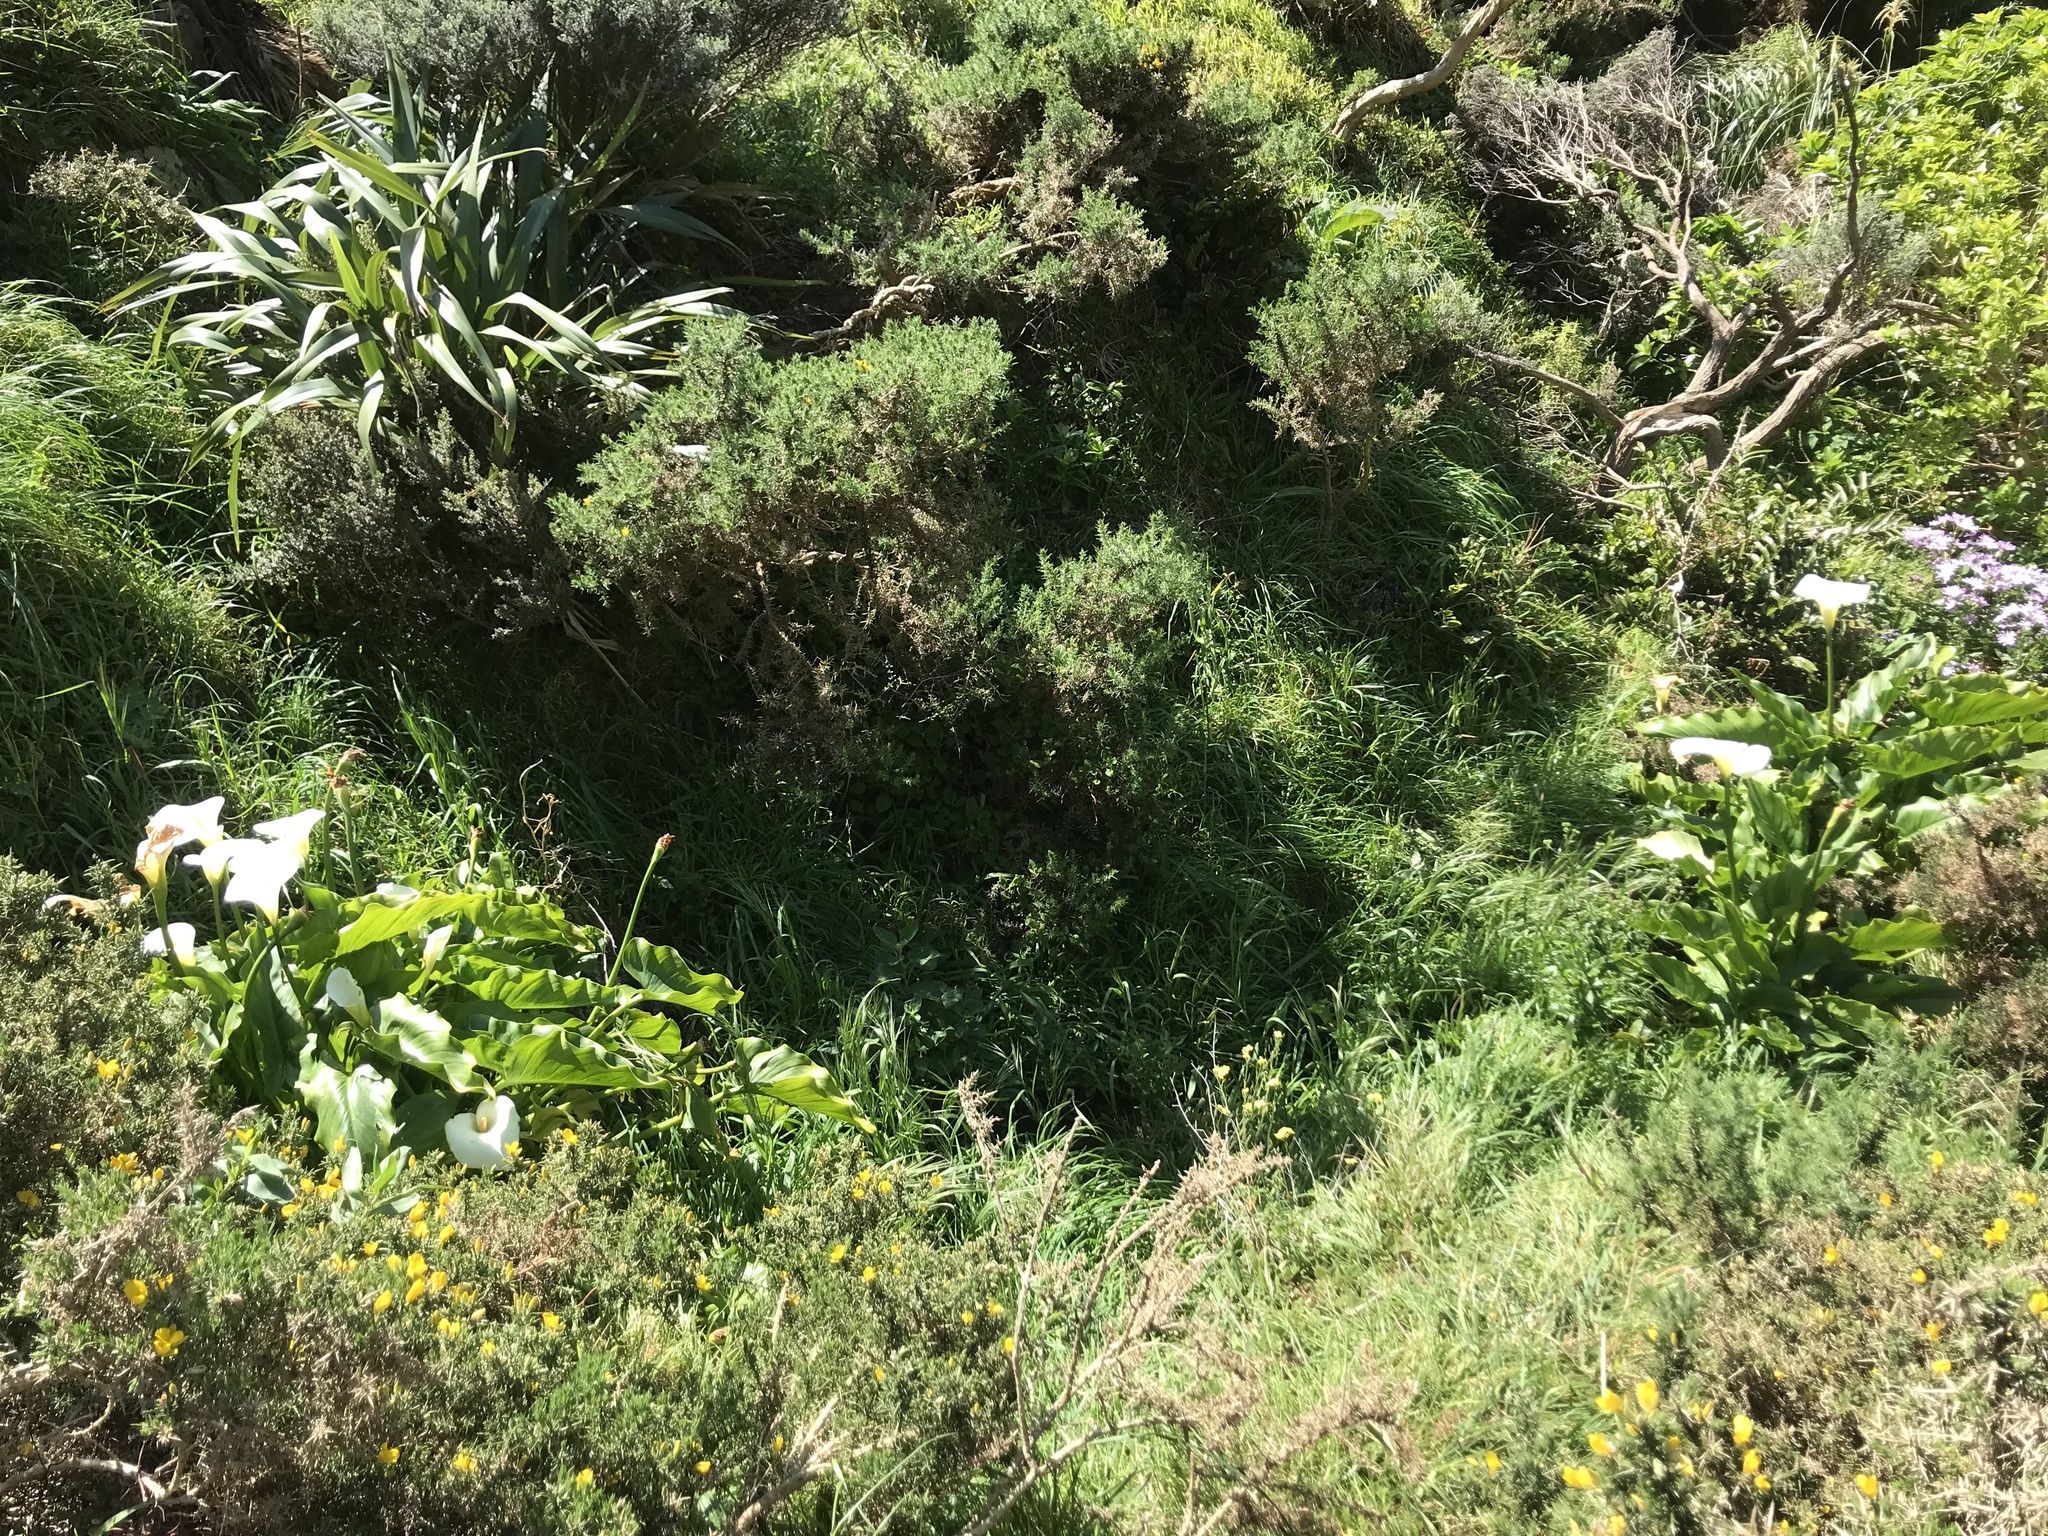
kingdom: Plantae
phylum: Tracheophyta
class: Liliopsida
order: Alismatales
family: Araceae
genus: Zantedeschia
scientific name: Zantedeschia aethiopica
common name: Altar-lily
